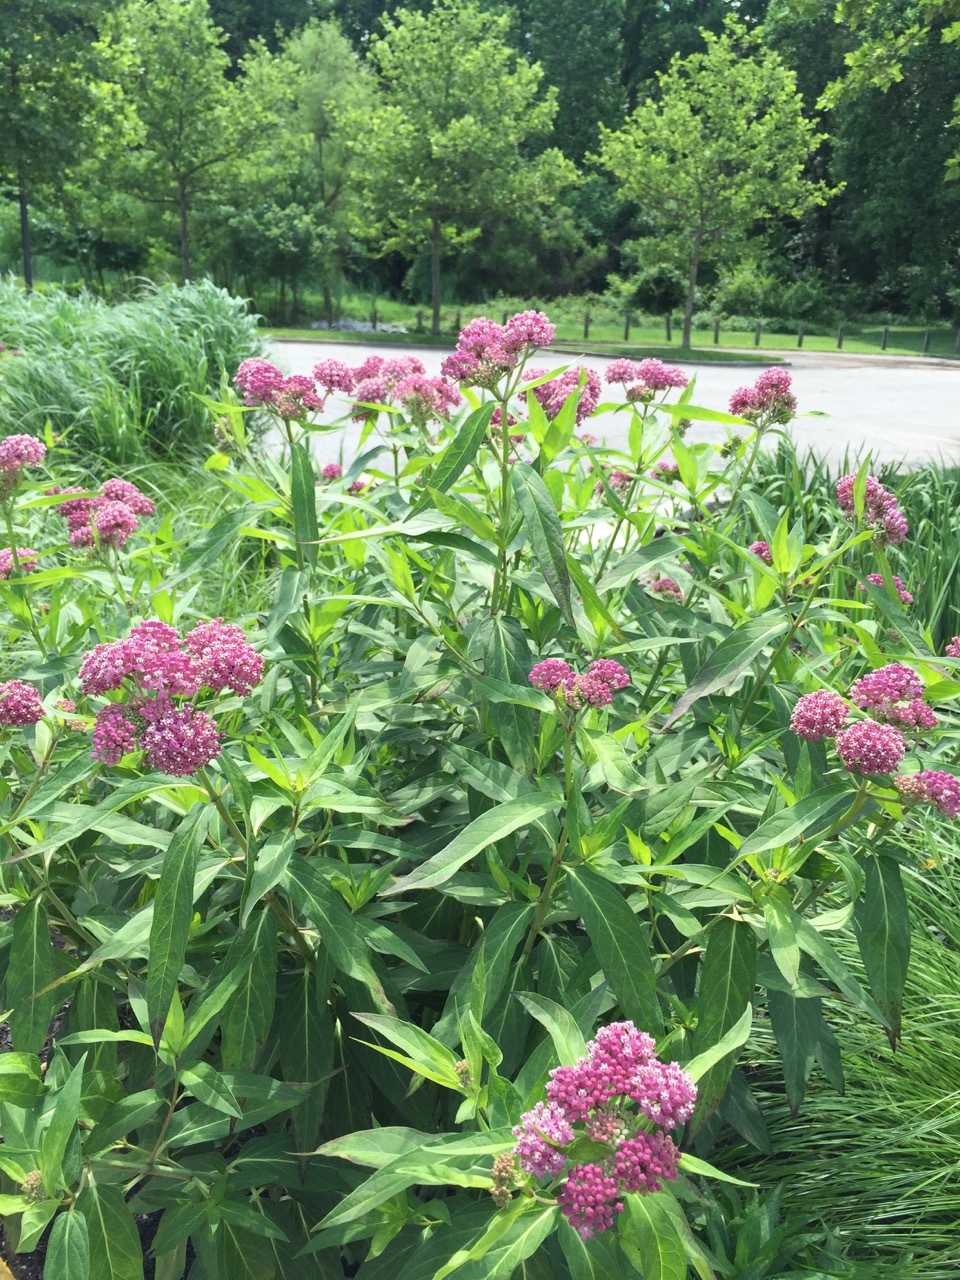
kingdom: Plantae
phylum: Tracheophyta
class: Magnoliopsida
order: Gentianales
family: Apocynaceae
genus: Asclepias
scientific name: Asclepias incarnata
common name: Swamp milkweed
